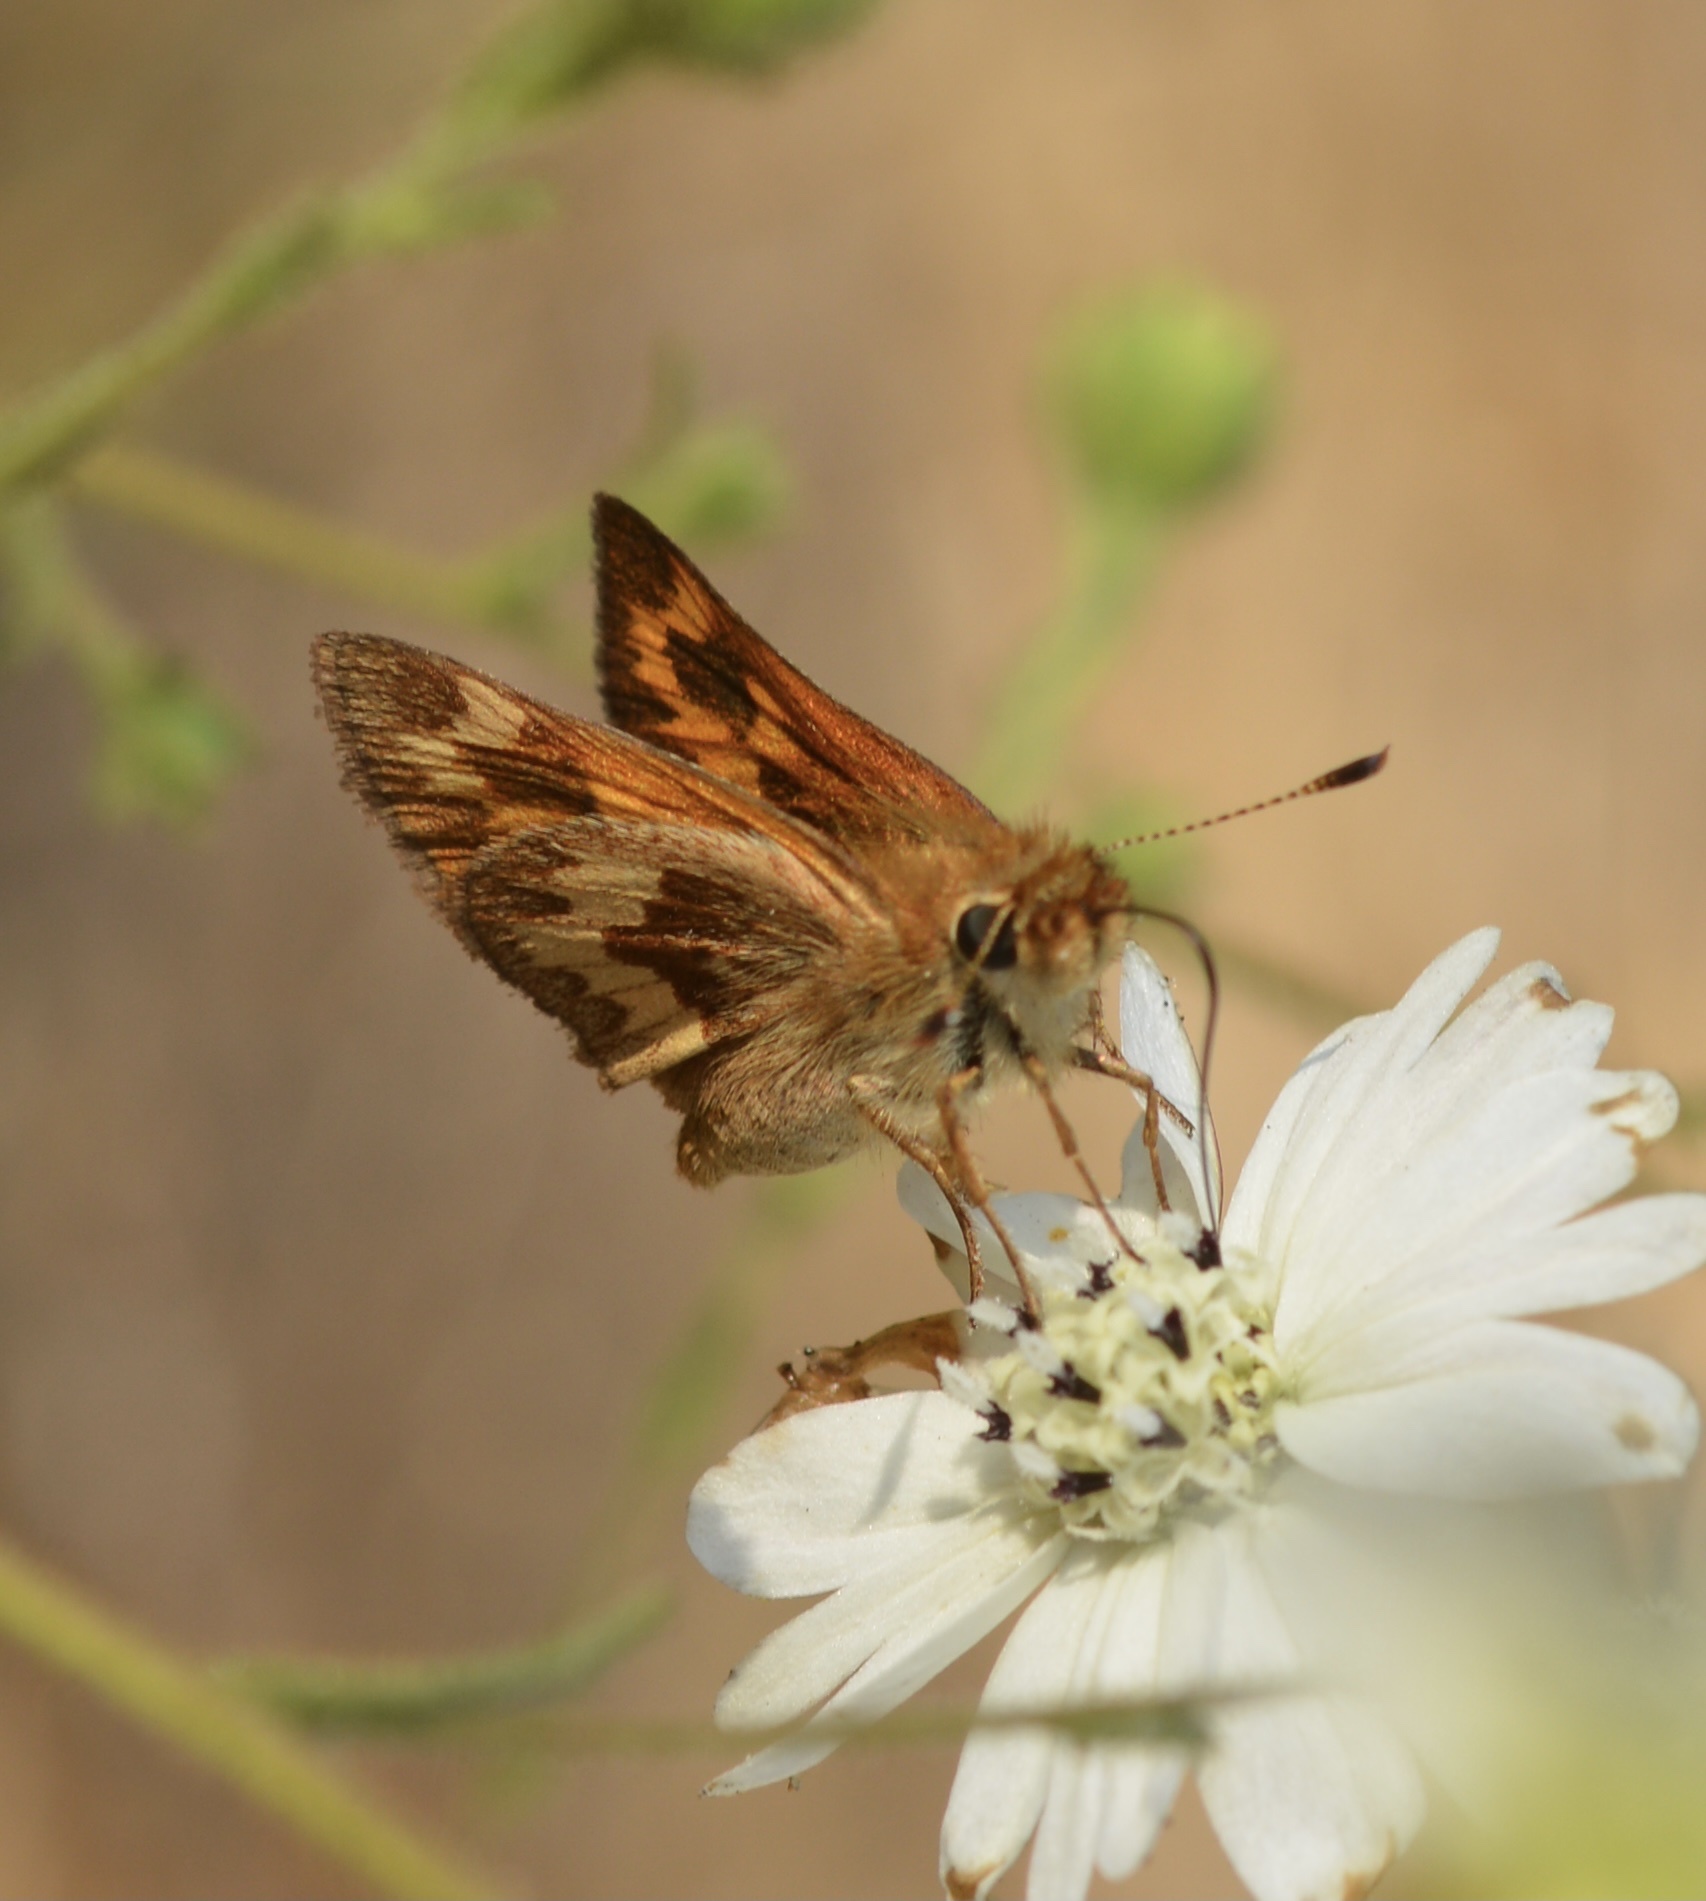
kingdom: Animalia
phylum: Arthropoda
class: Insecta
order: Lepidoptera
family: Hesperiidae
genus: Ochlodes
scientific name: Ochlodes sylvanoides
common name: Woodland skipper
